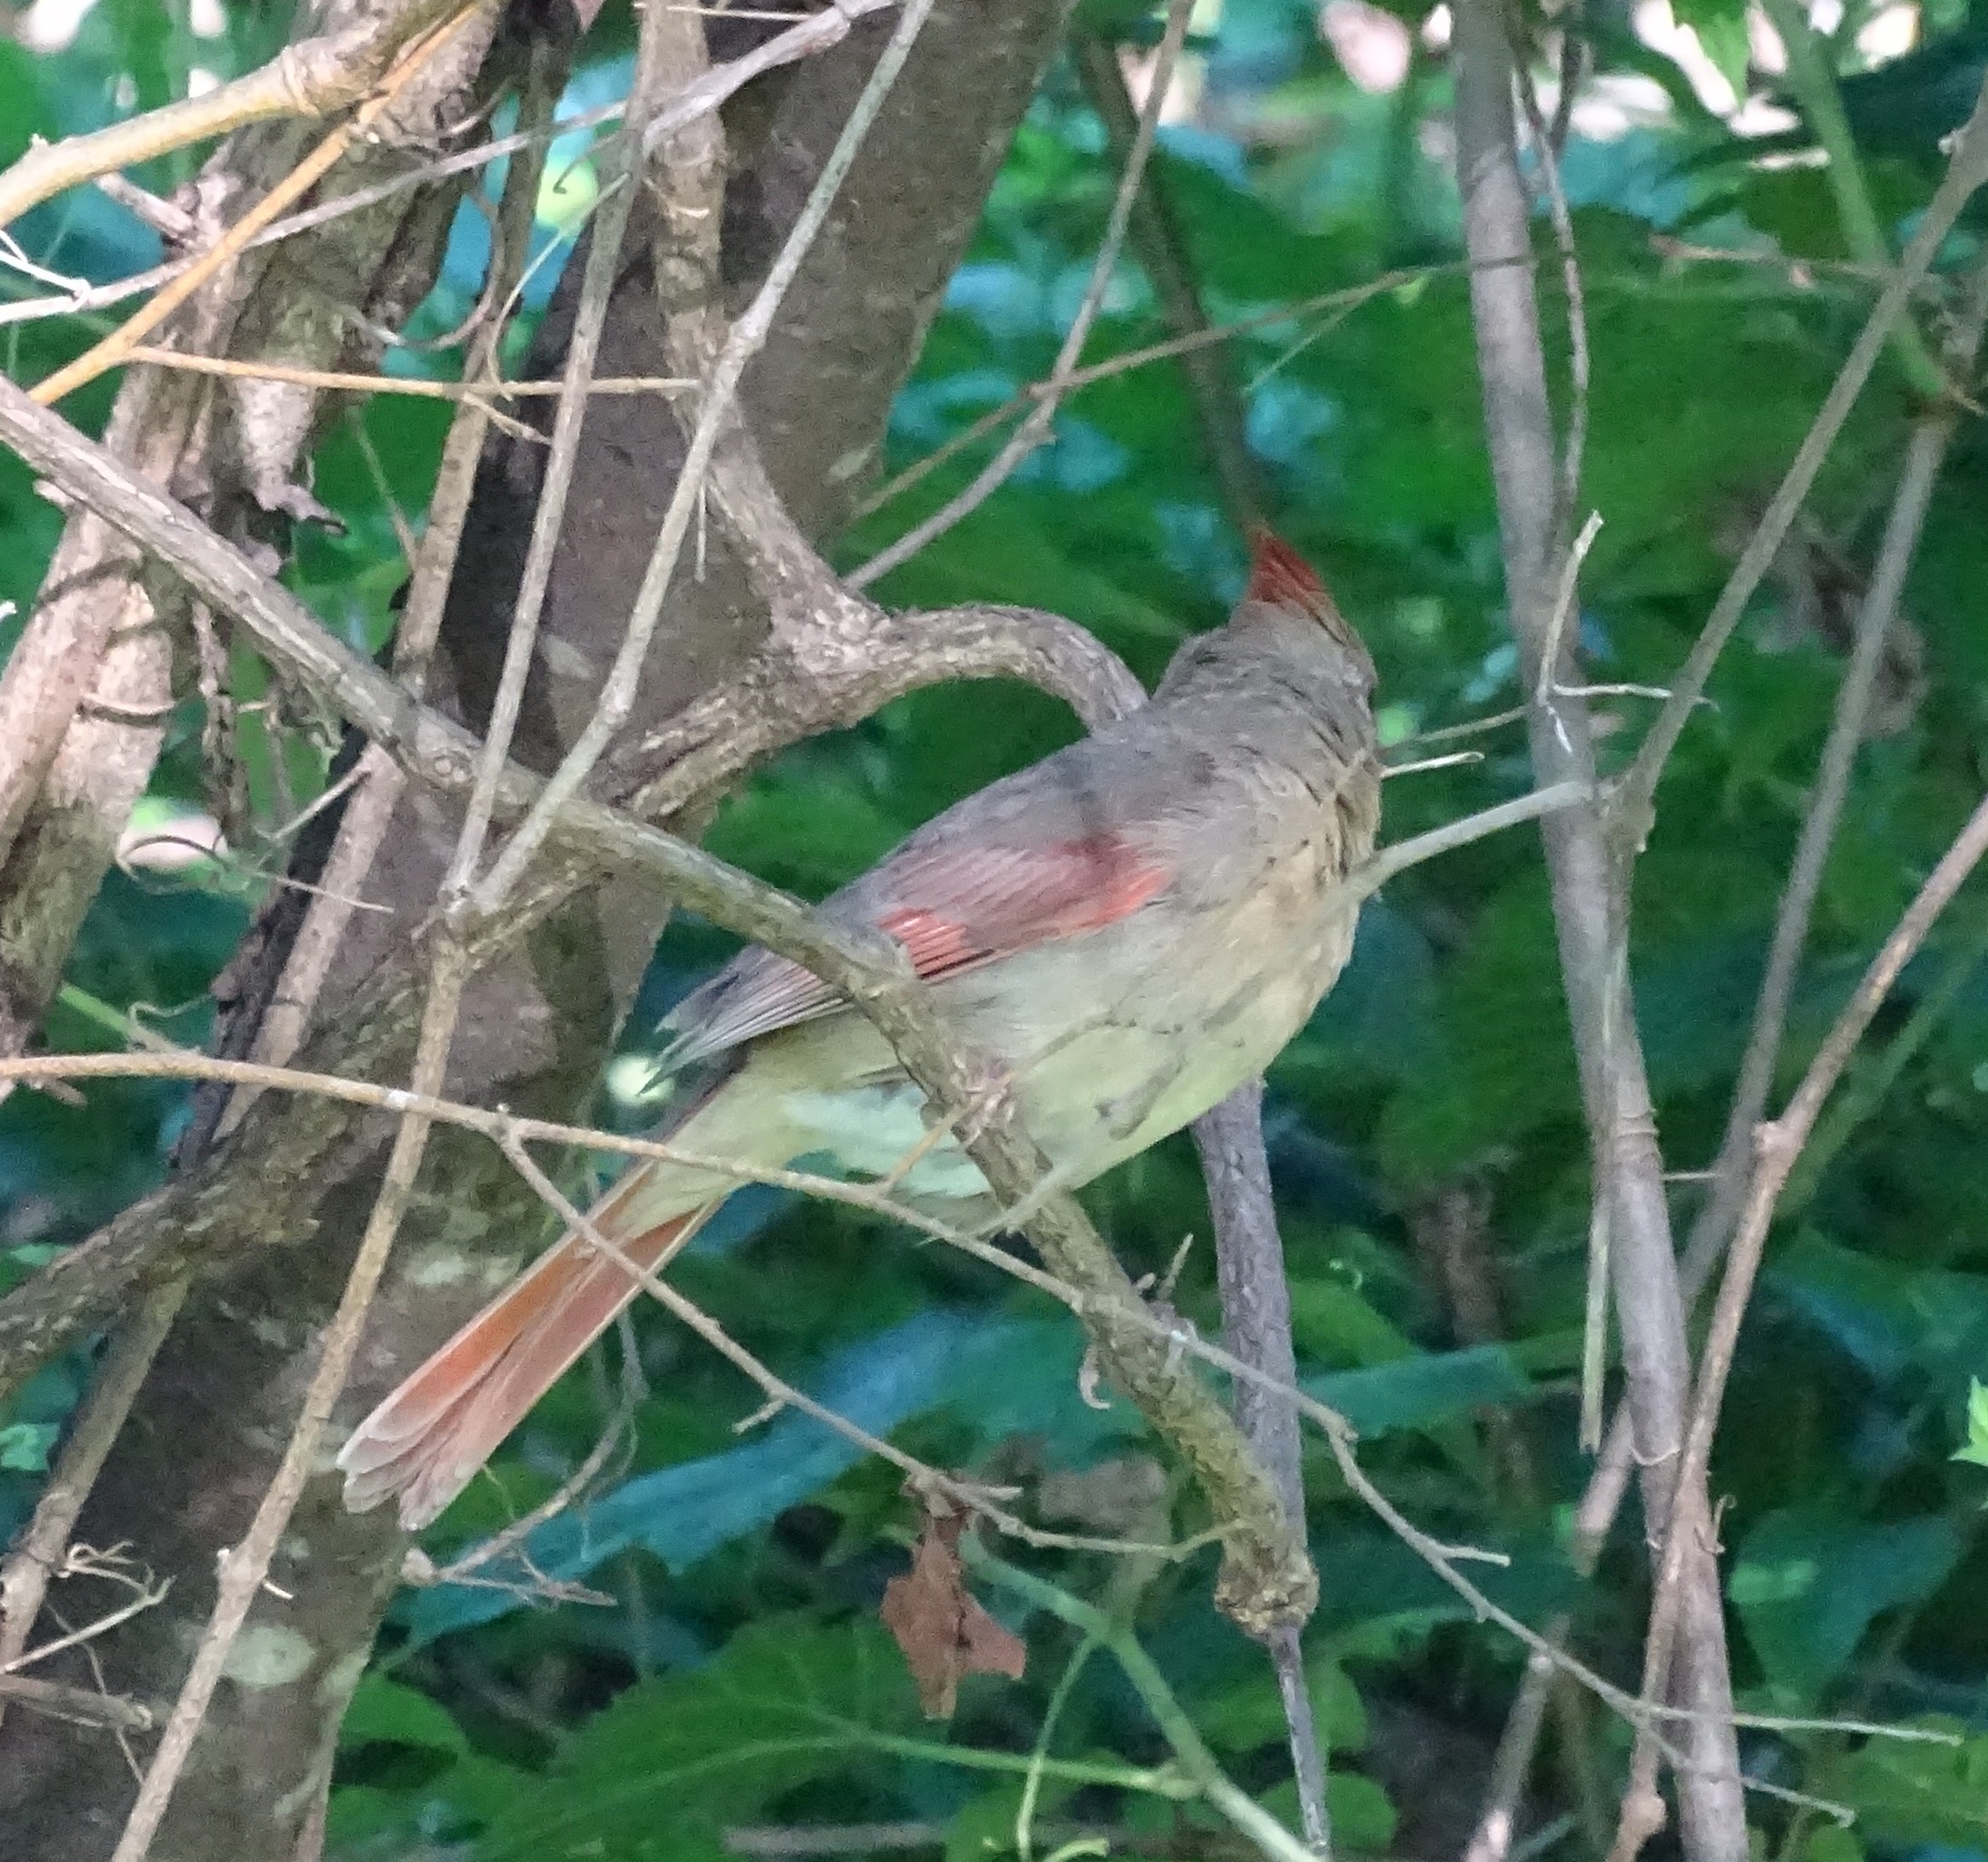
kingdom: Animalia
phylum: Chordata
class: Aves
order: Passeriformes
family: Cardinalidae
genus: Cardinalis
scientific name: Cardinalis cardinalis
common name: Northern cardinal
